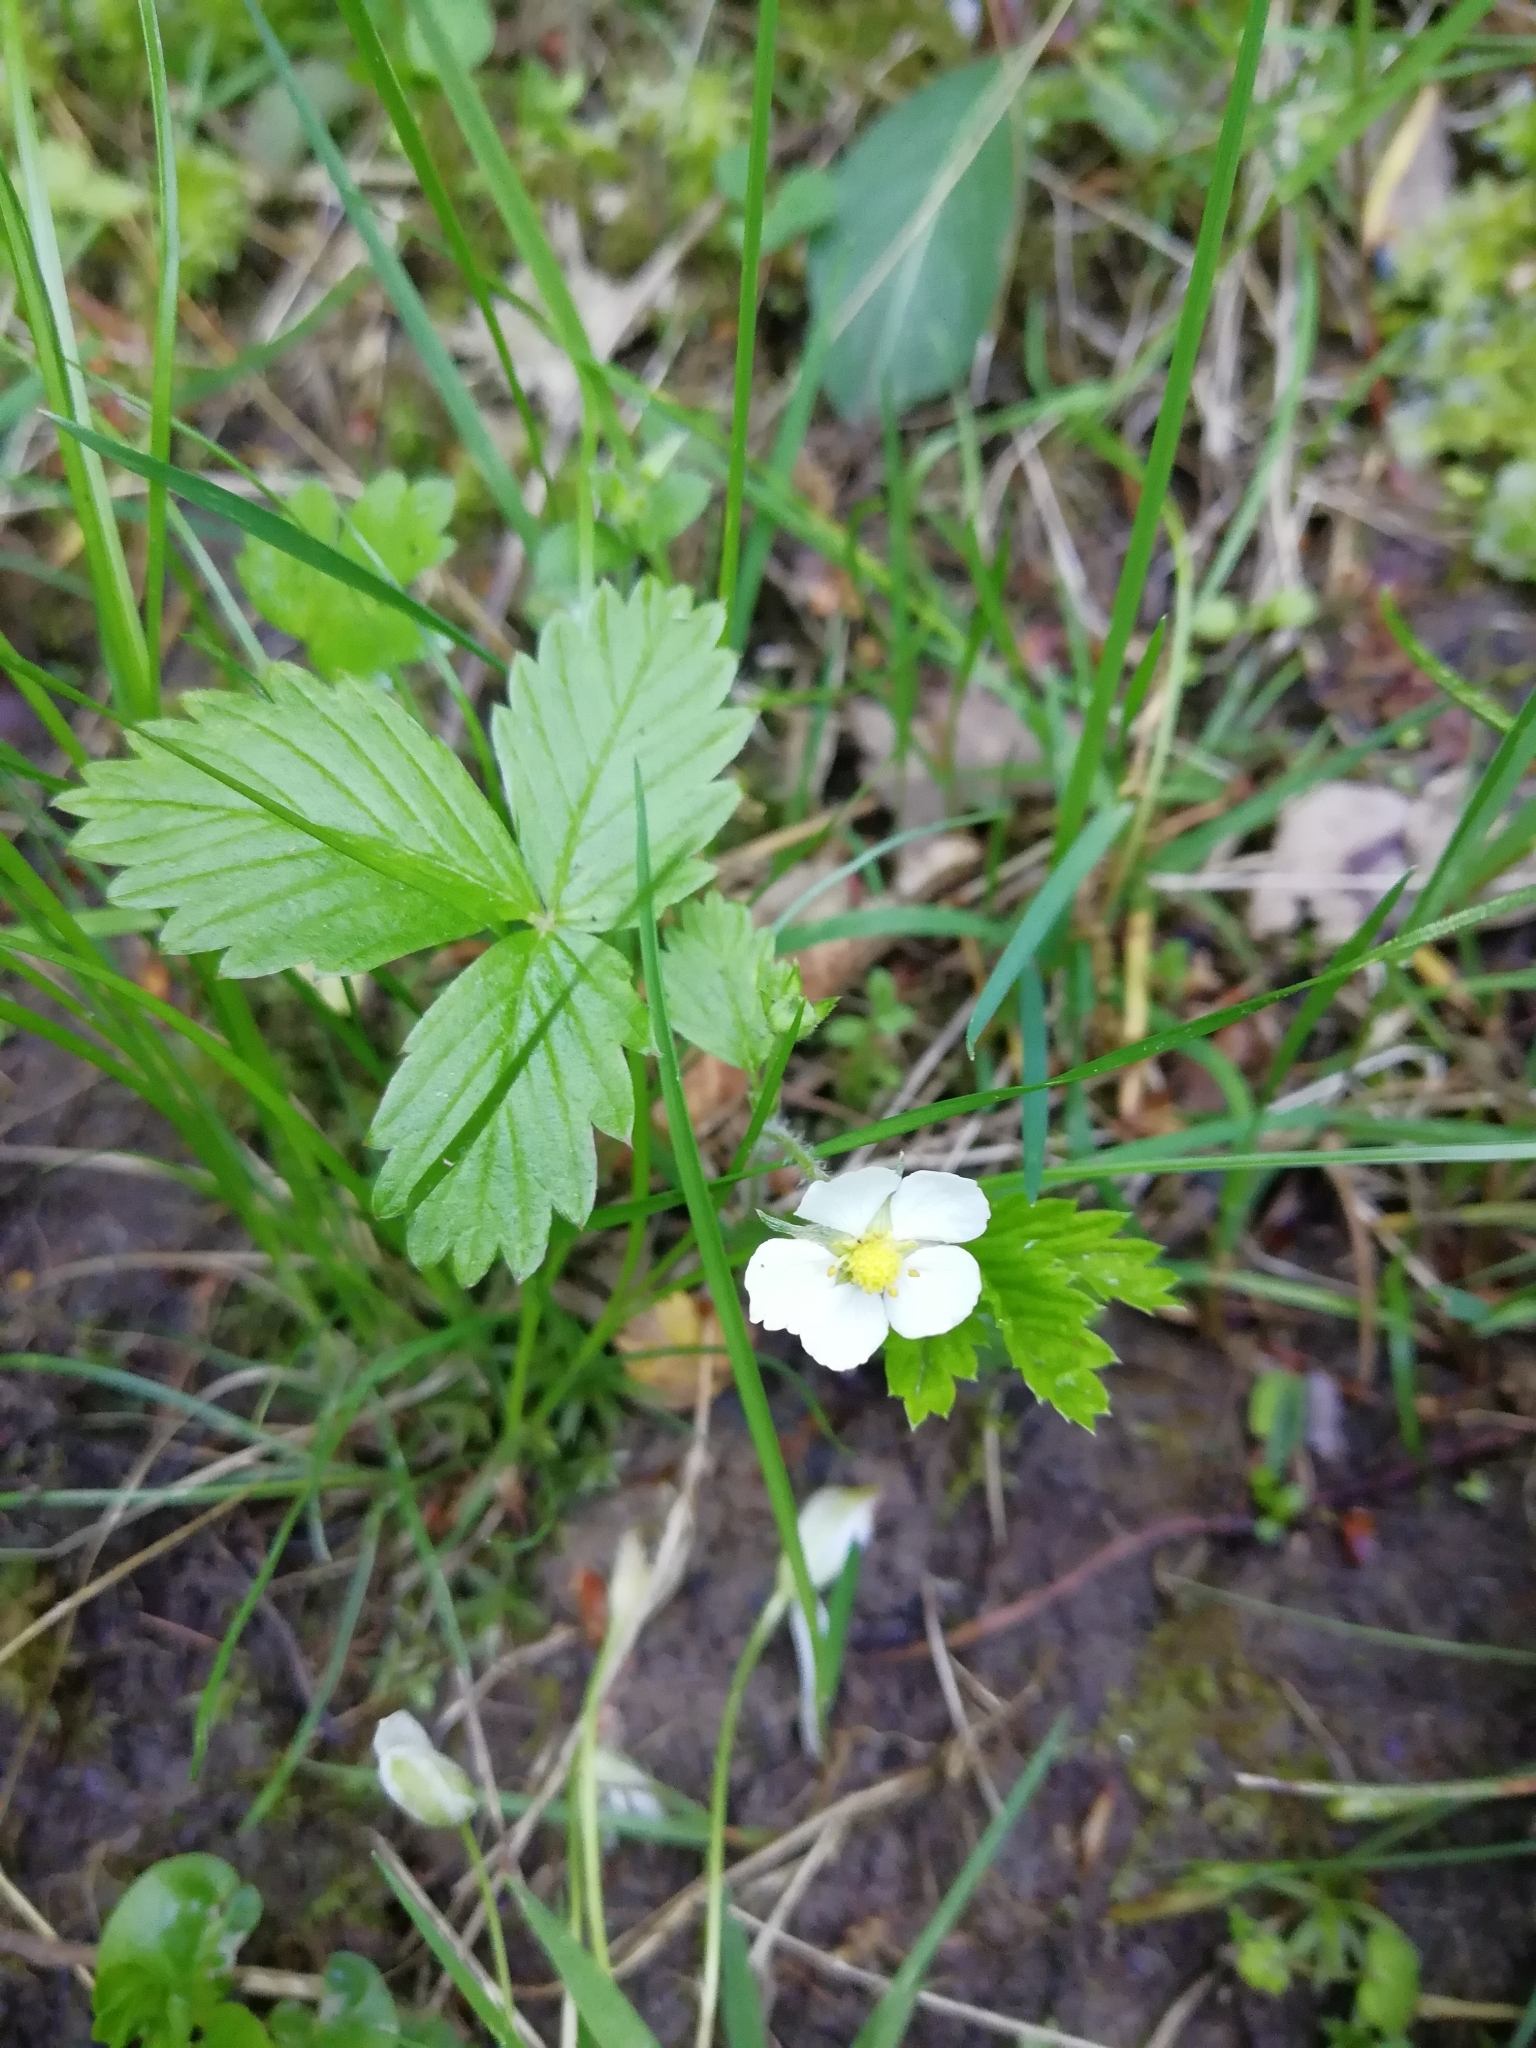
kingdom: Plantae
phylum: Tracheophyta
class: Magnoliopsida
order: Rosales
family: Rosaceae
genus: Fragaria
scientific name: Fragaria viridis
